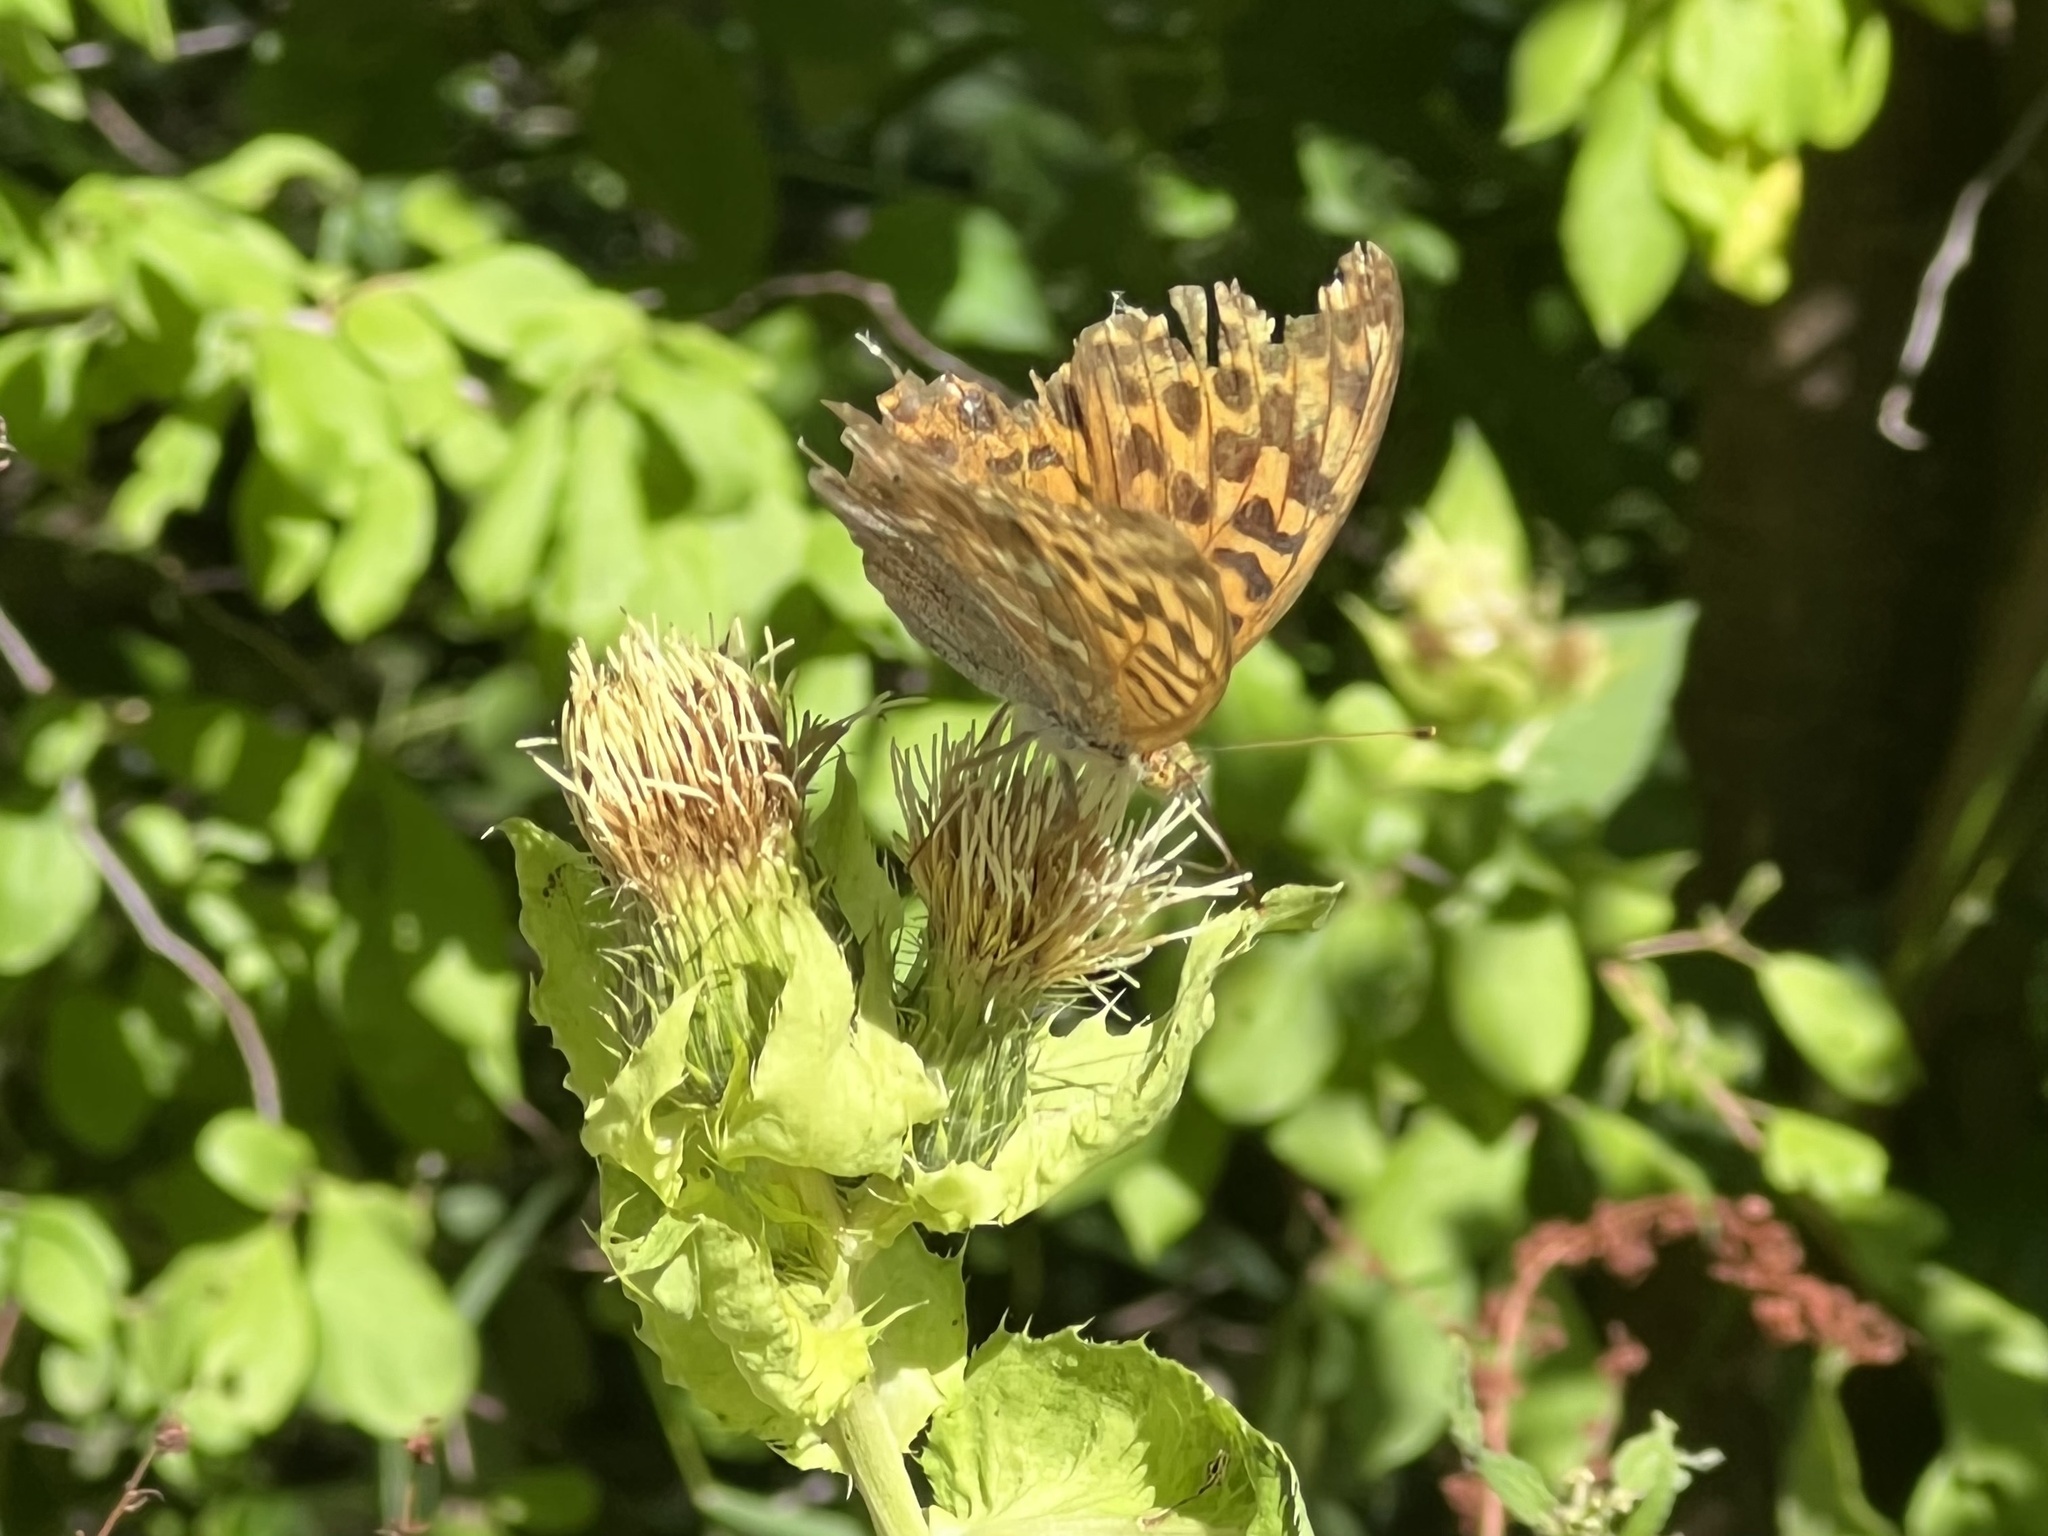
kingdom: Animalia
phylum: Arthropoda
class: Insecta
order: Lepidoptera
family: Nymphalidae
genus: Argynnis
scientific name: Argynnis paphia
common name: Silver-washed fritillary
